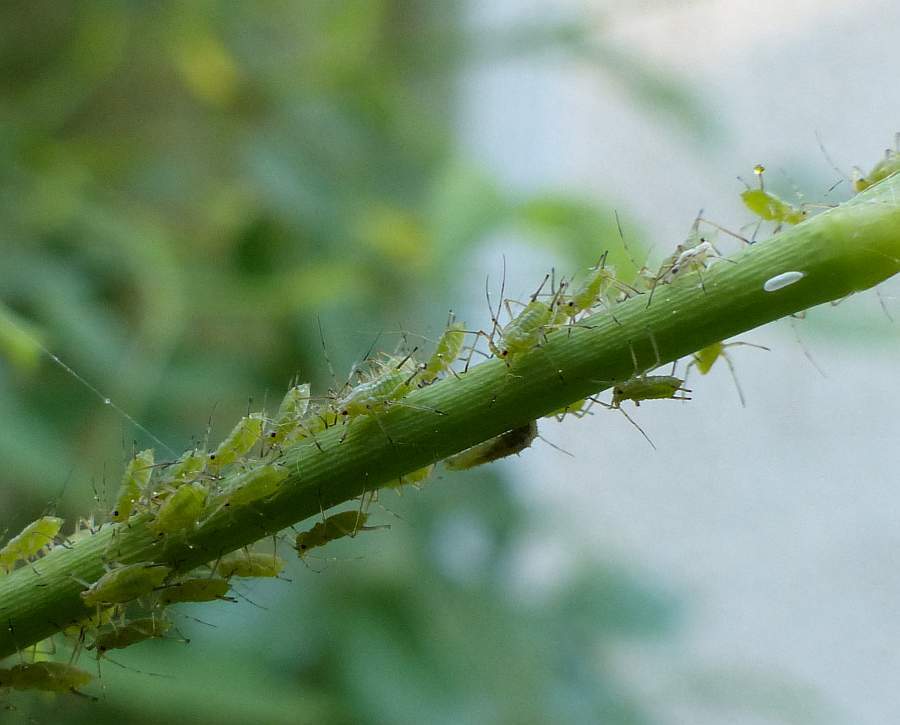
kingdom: Animalia
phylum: Arthropoda
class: Insecta
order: Hemiptera
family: Aphididae
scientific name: Aphididae
